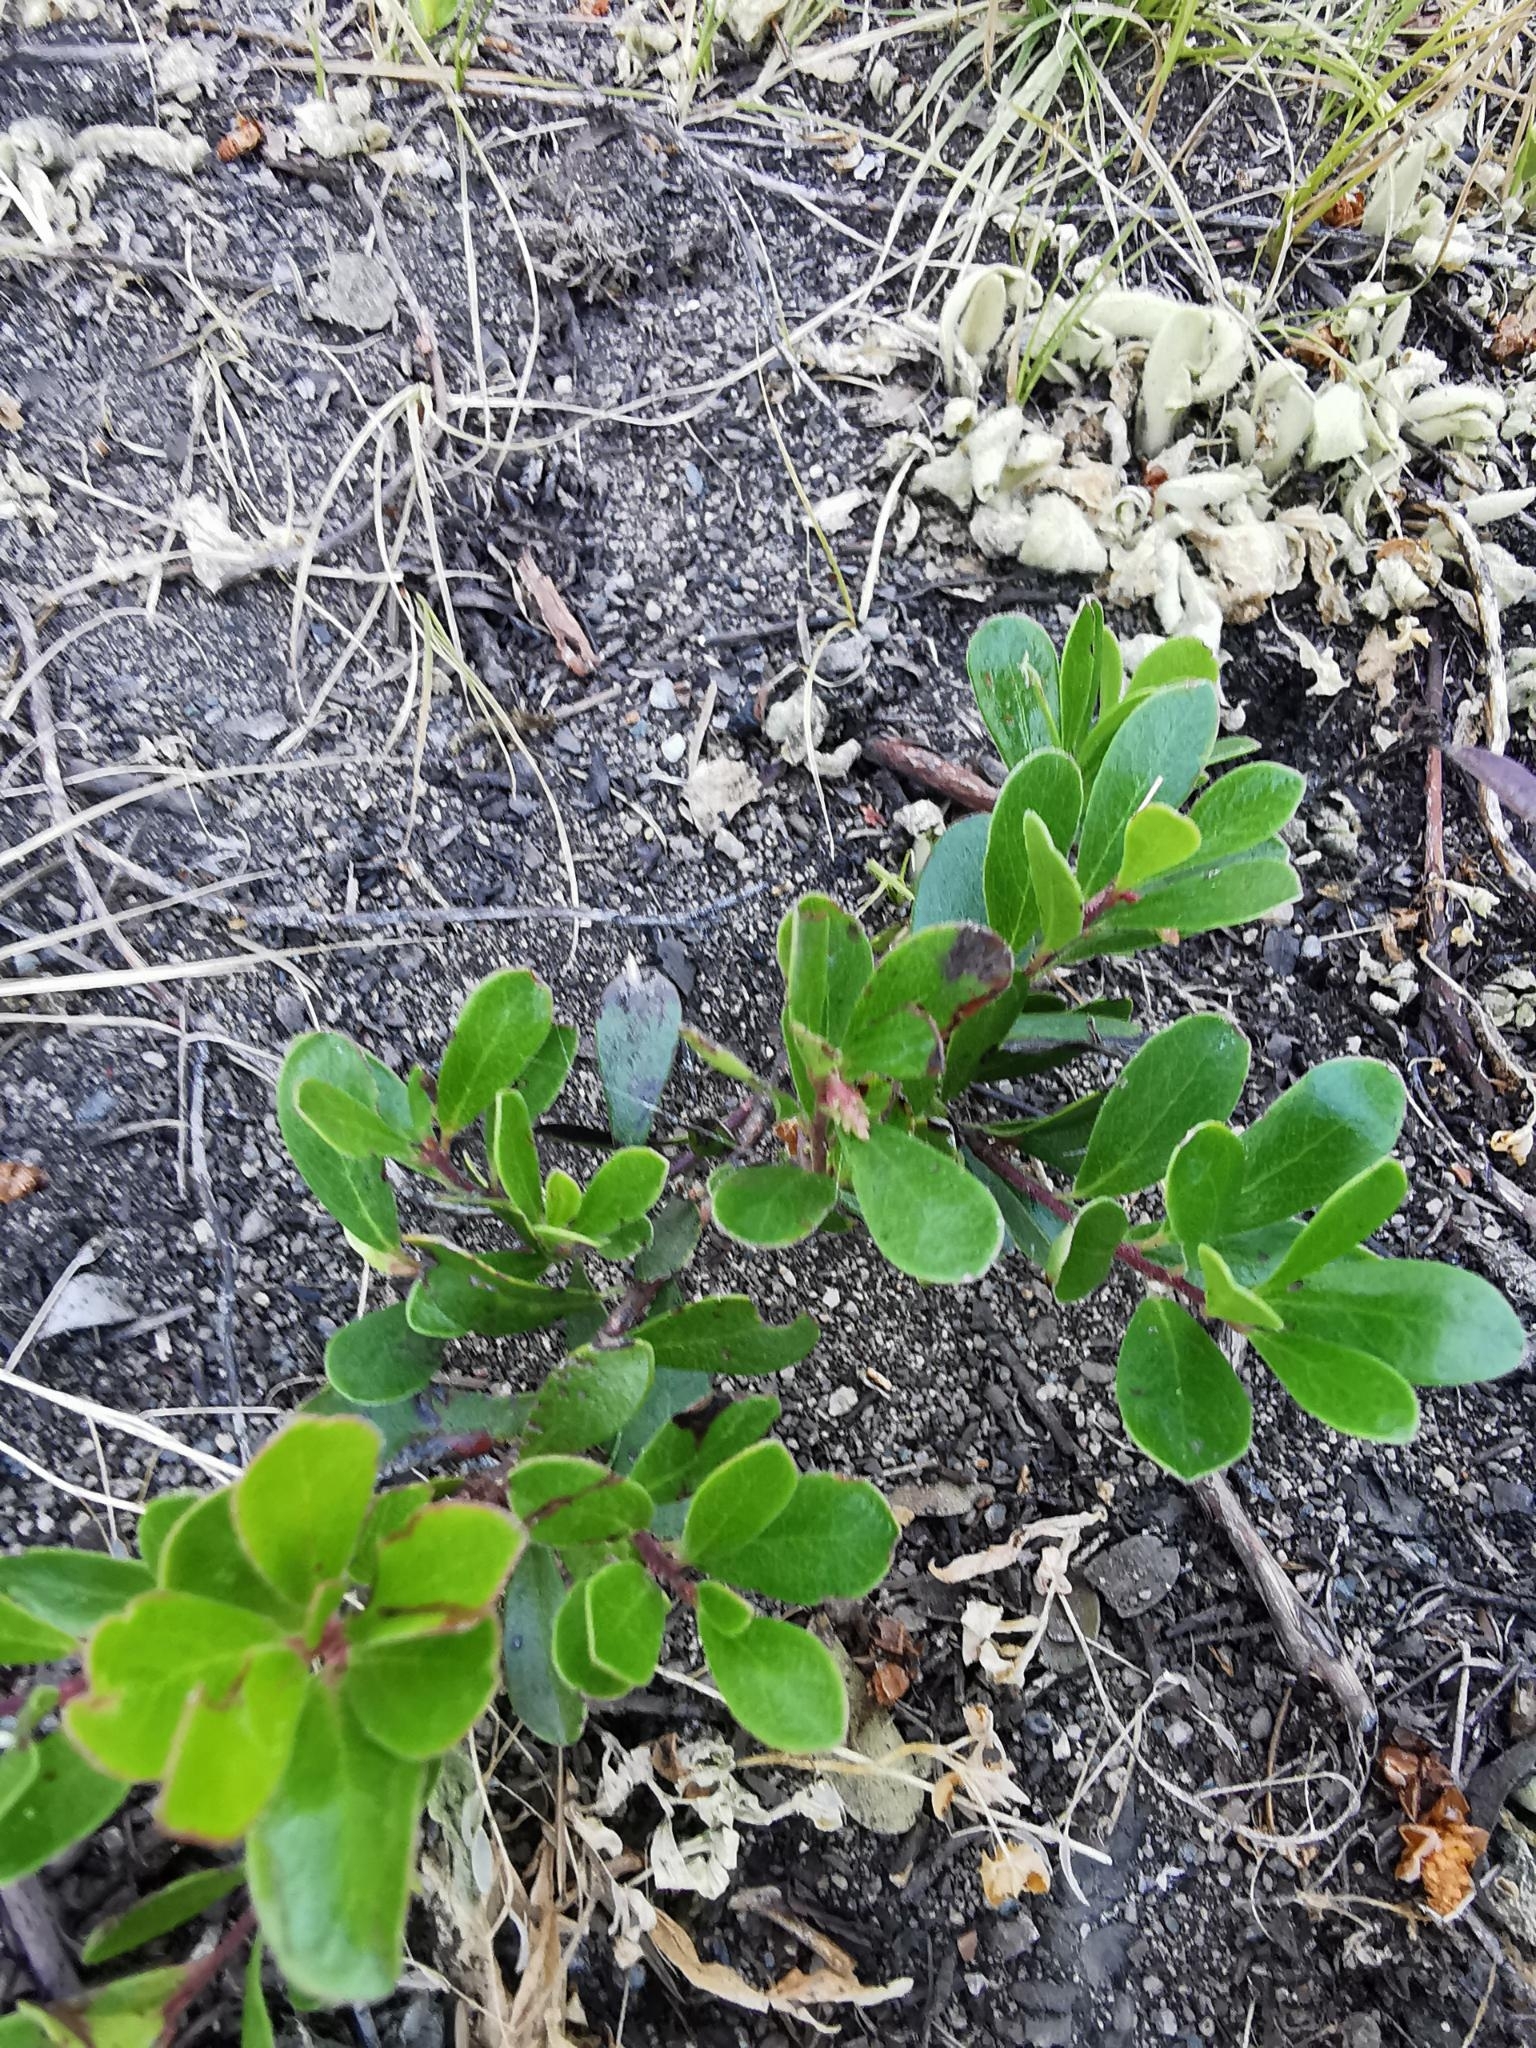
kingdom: Plantae
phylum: Tracheophyta
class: Magnoliopsida
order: Ericales
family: Ericaceae
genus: Arctostaphylos
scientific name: Arctostaphylos uva-ursi
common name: Bearberry
